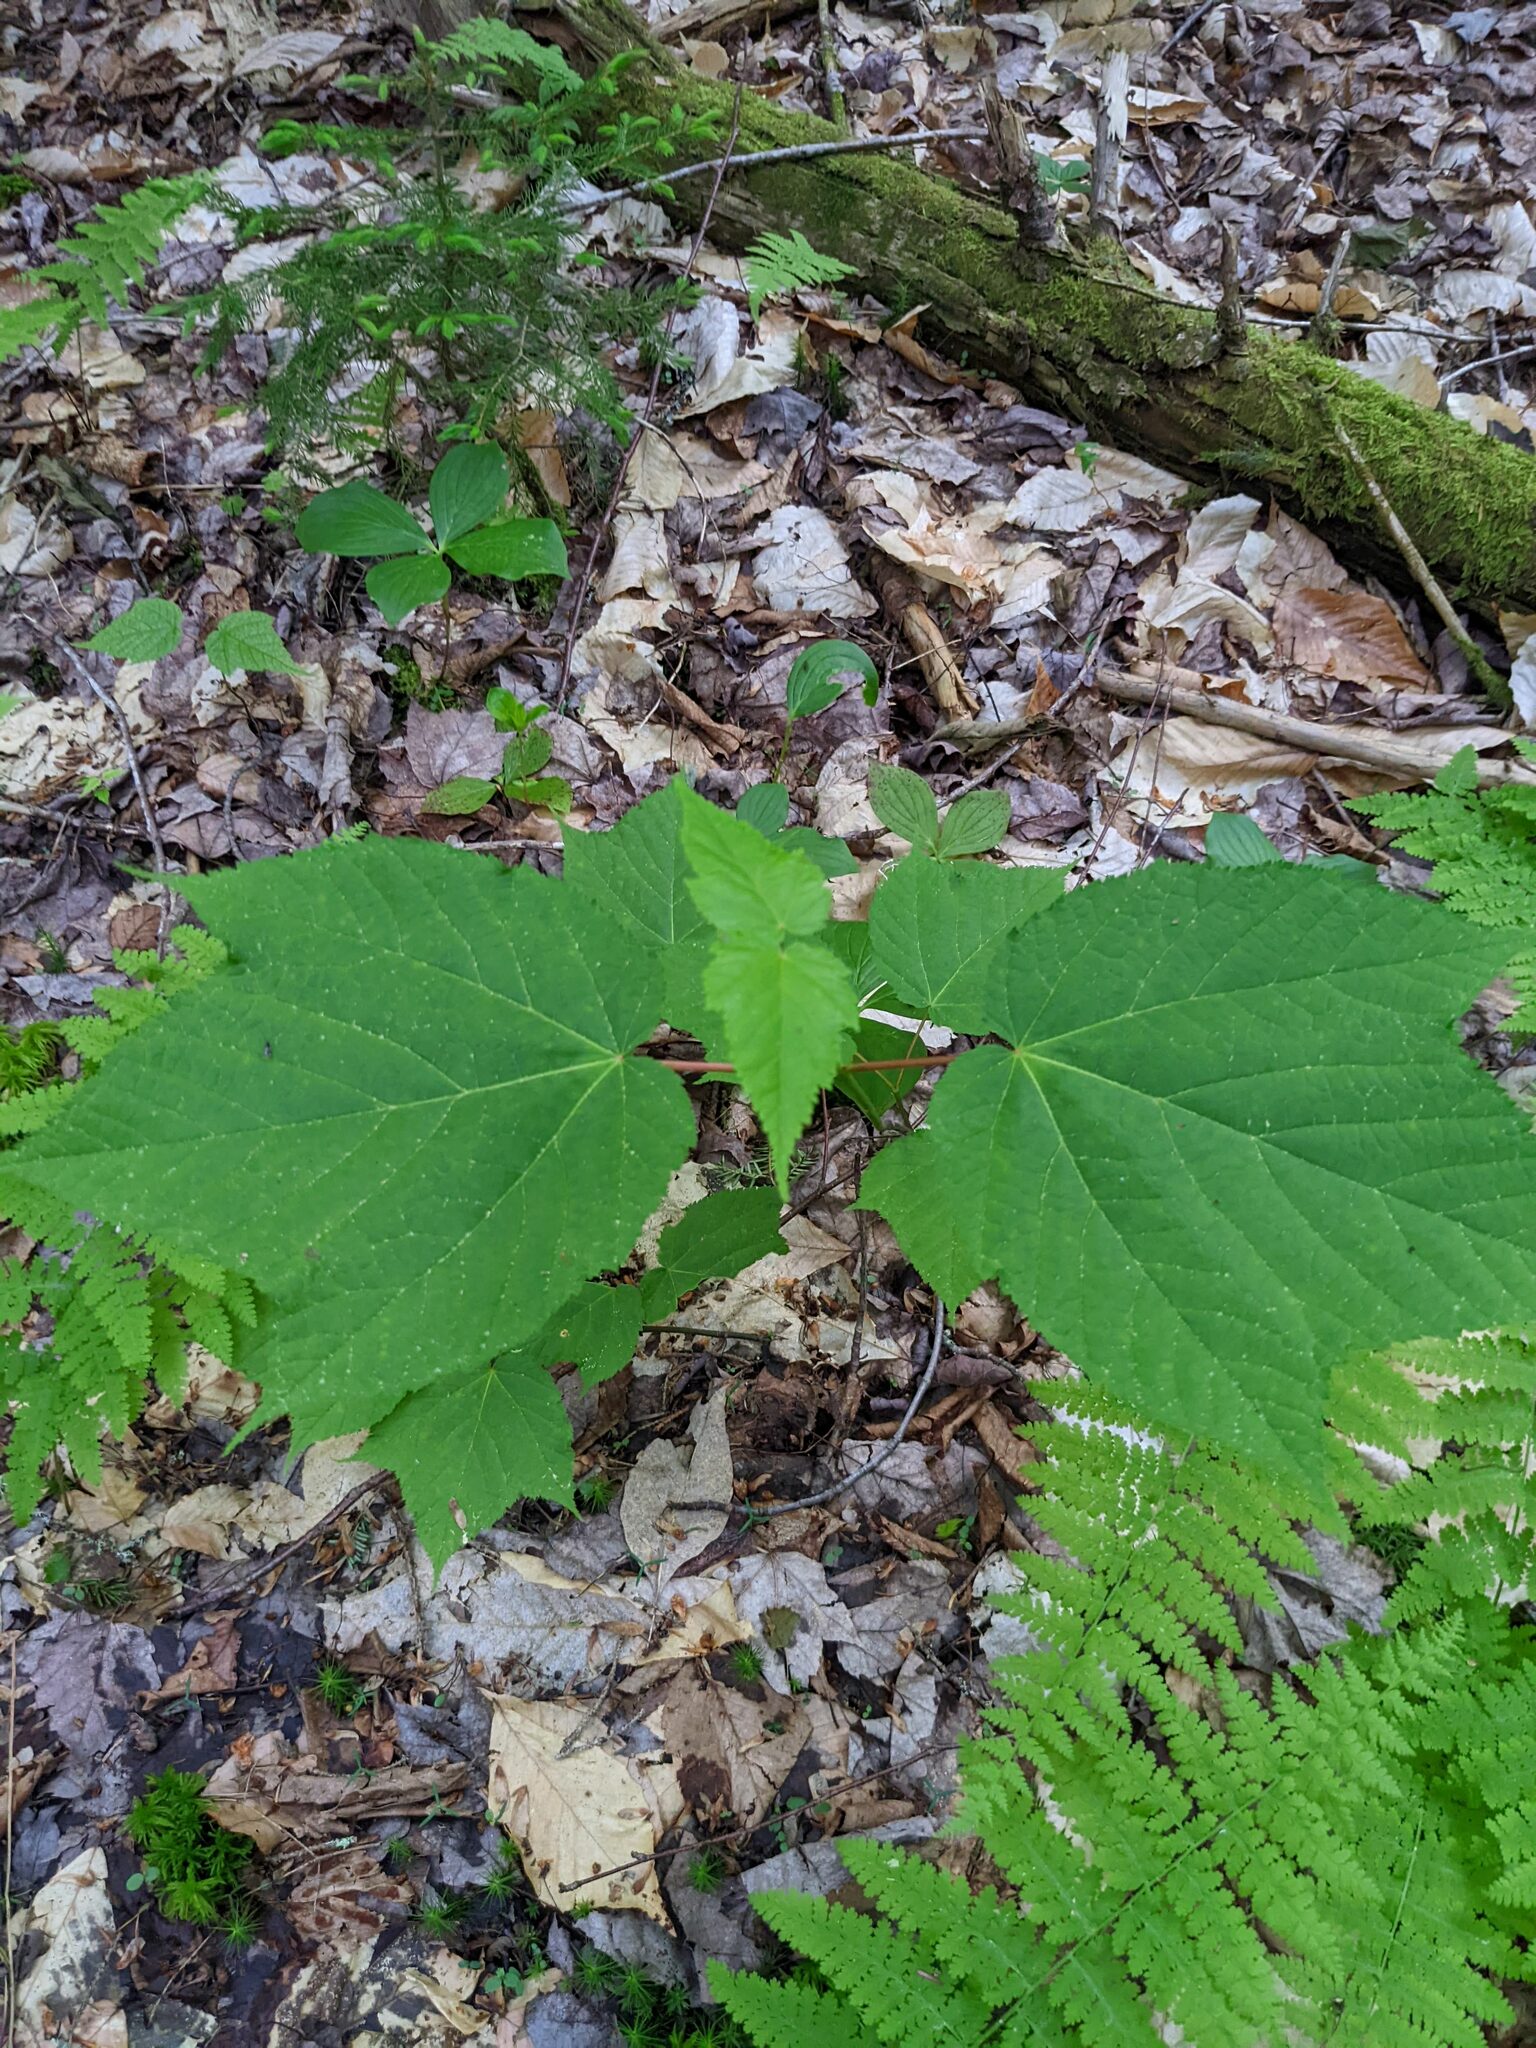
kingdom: Plantae
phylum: Tracheophyta
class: Magnoliopsida
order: Sapindales
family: Sapindaceae
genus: Acer
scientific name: Acer pensylvanicum
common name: Moosewood
